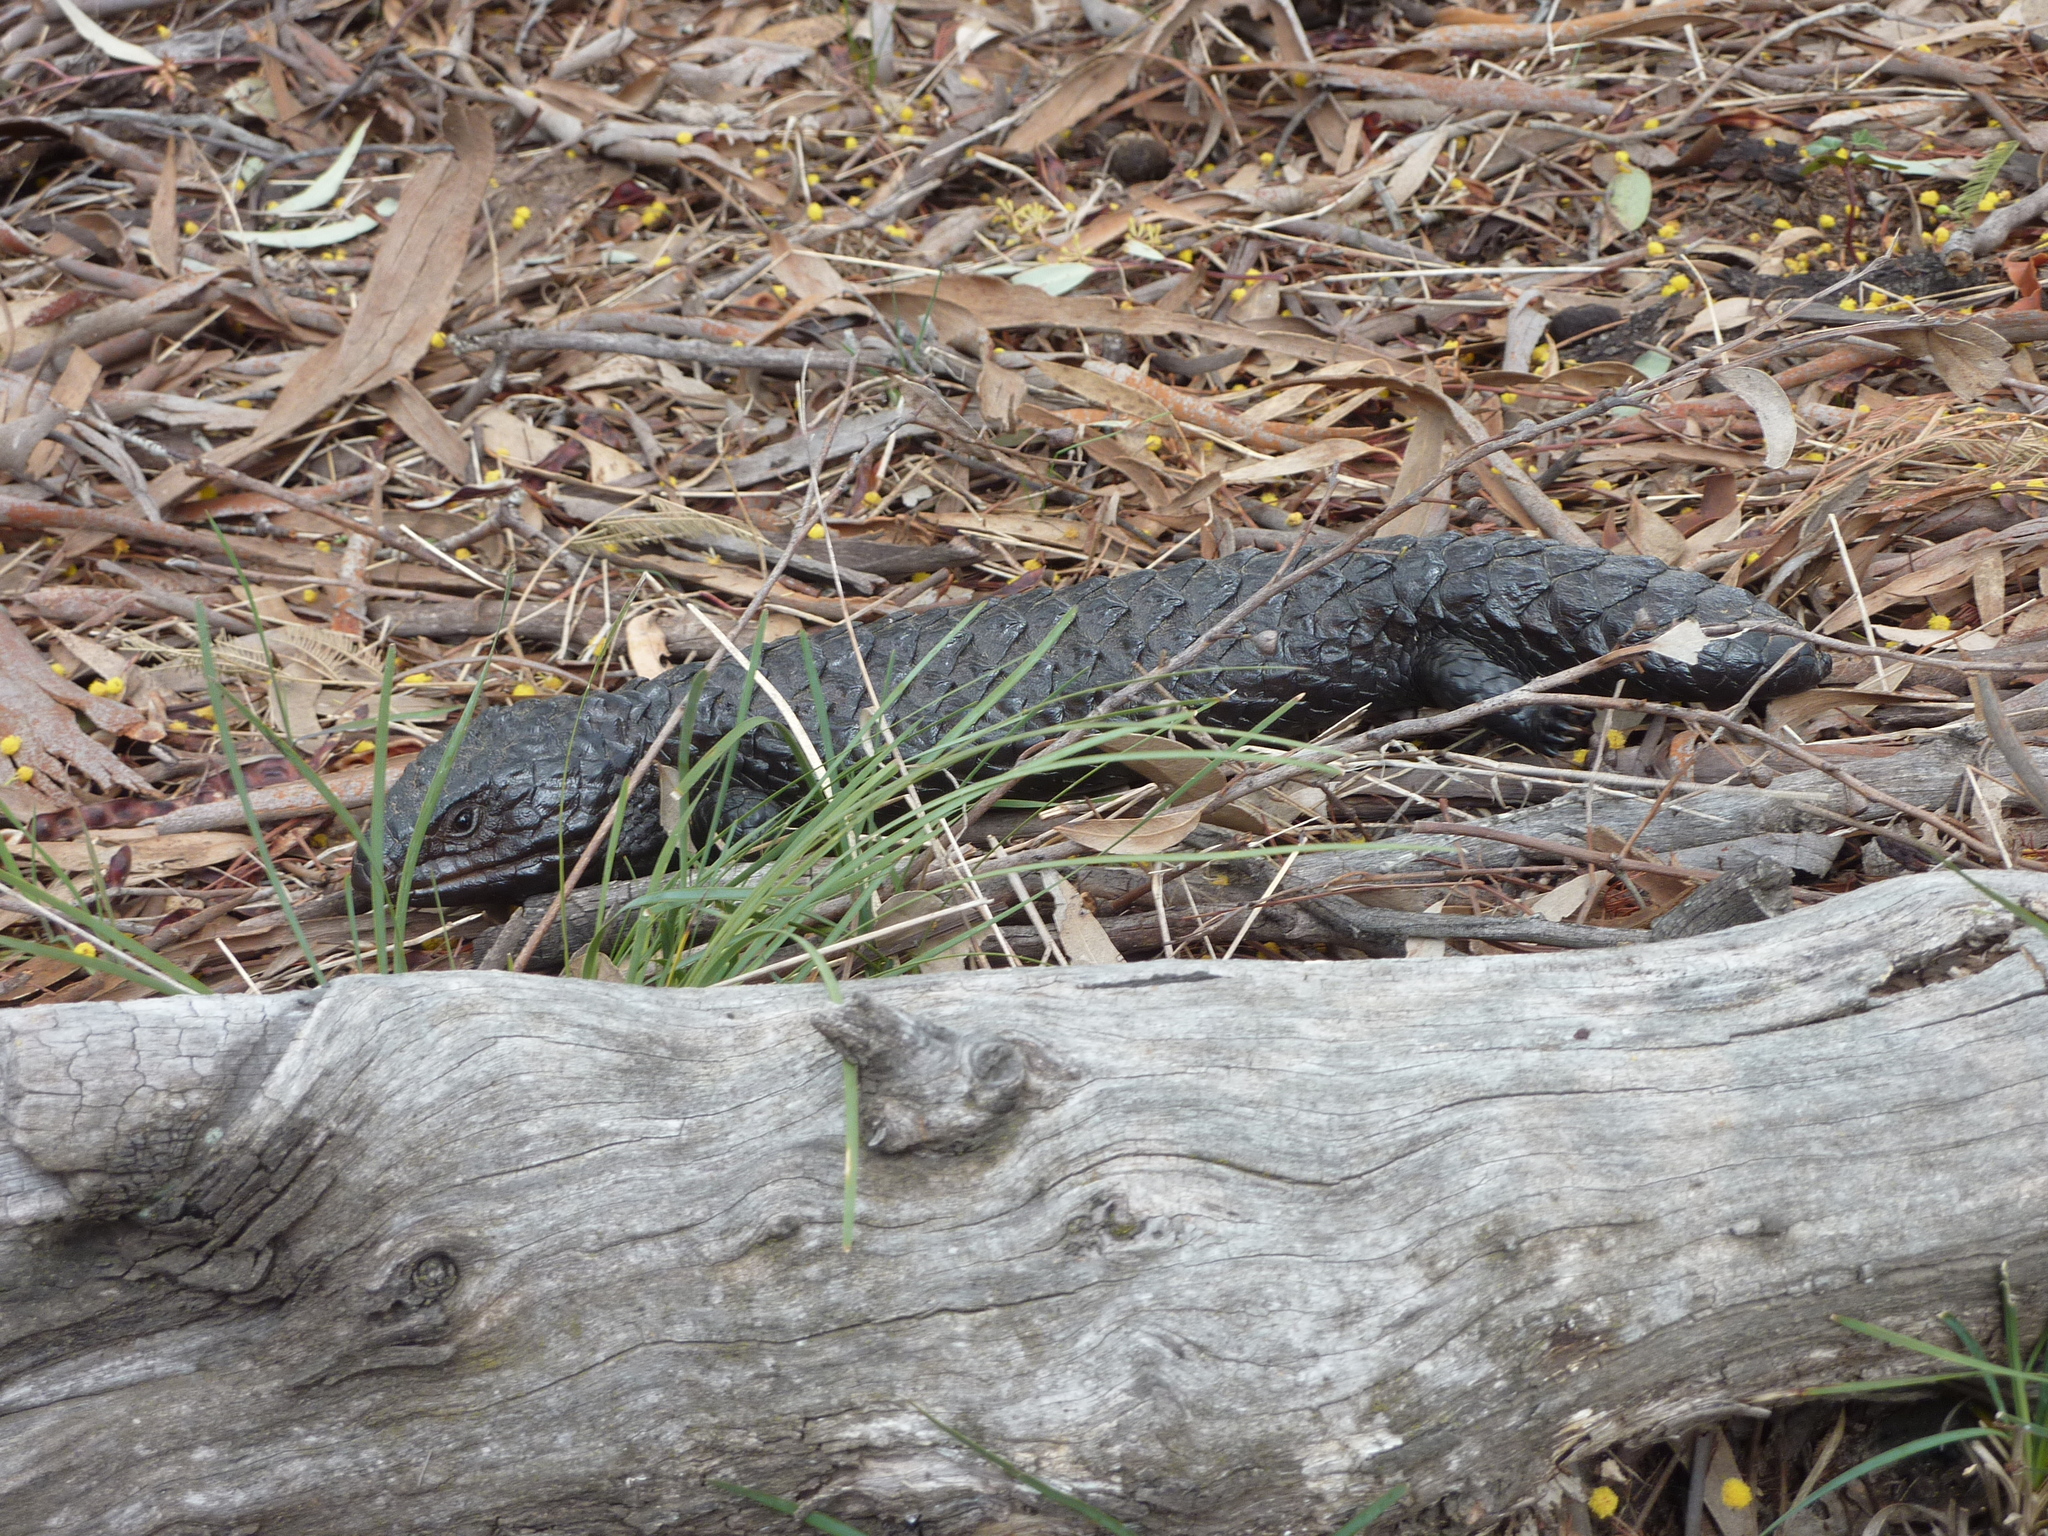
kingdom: Animalia
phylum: Chordata
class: Squamata
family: Scincidae
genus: Tiliqua
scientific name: Tiliqua rugosa
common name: Pinecone lizard
